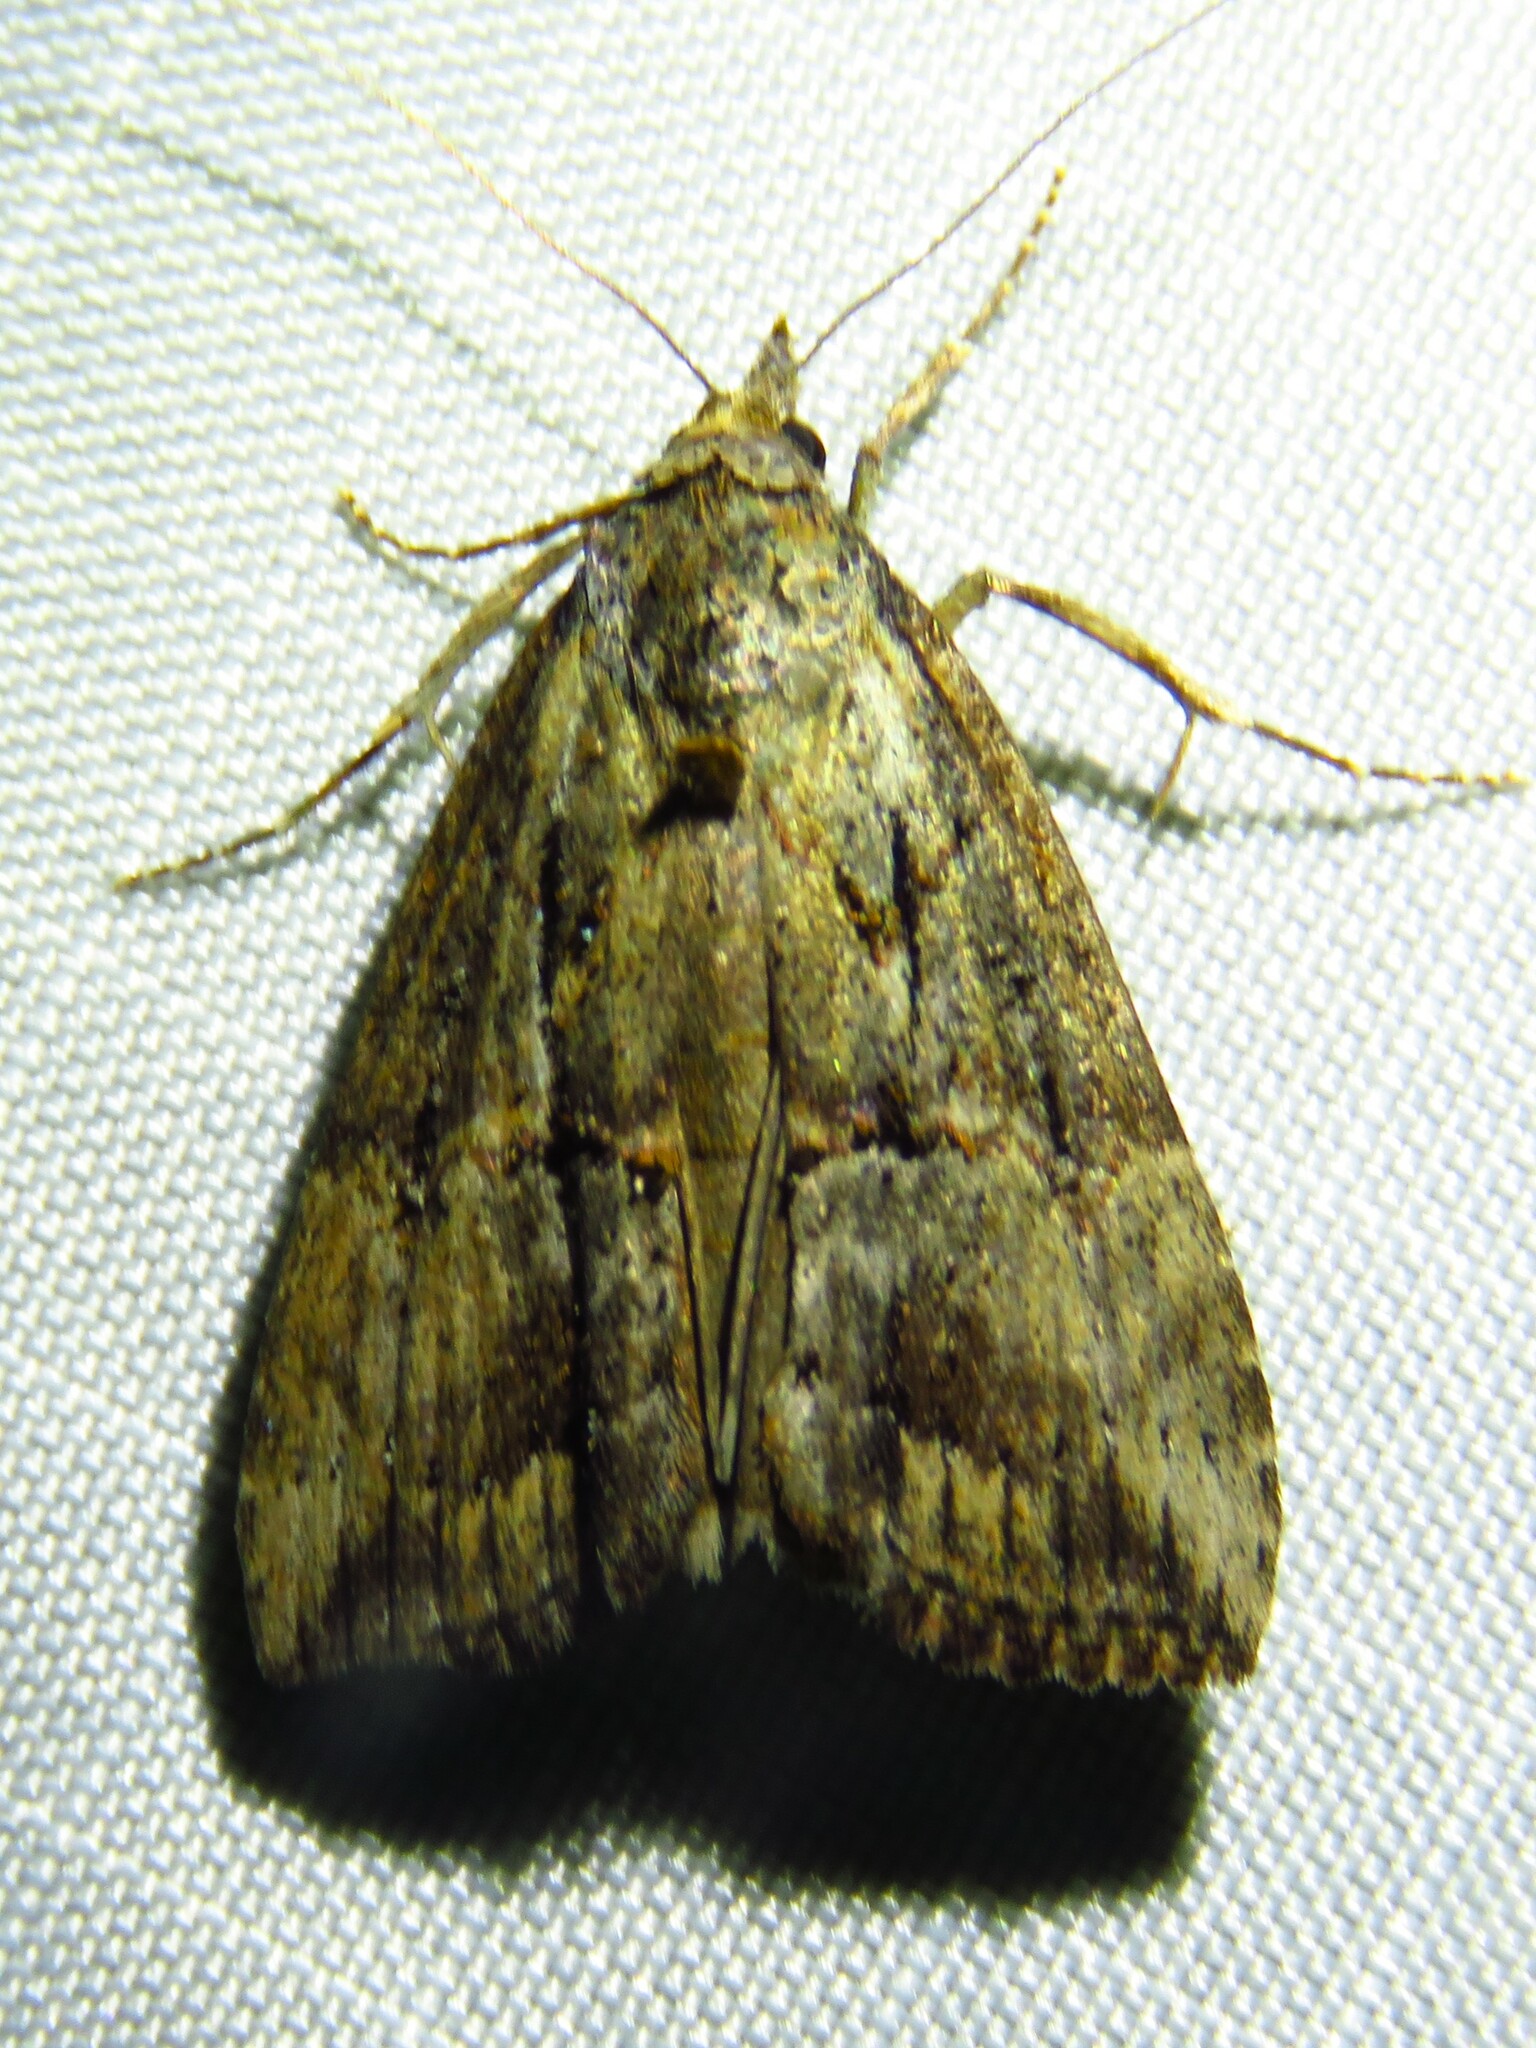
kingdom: Animalia
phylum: Arthropoda
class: Insecta
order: Lepidoptera
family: Erebidae
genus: Hypena
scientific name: Hypena scabra
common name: Green cloverworm
